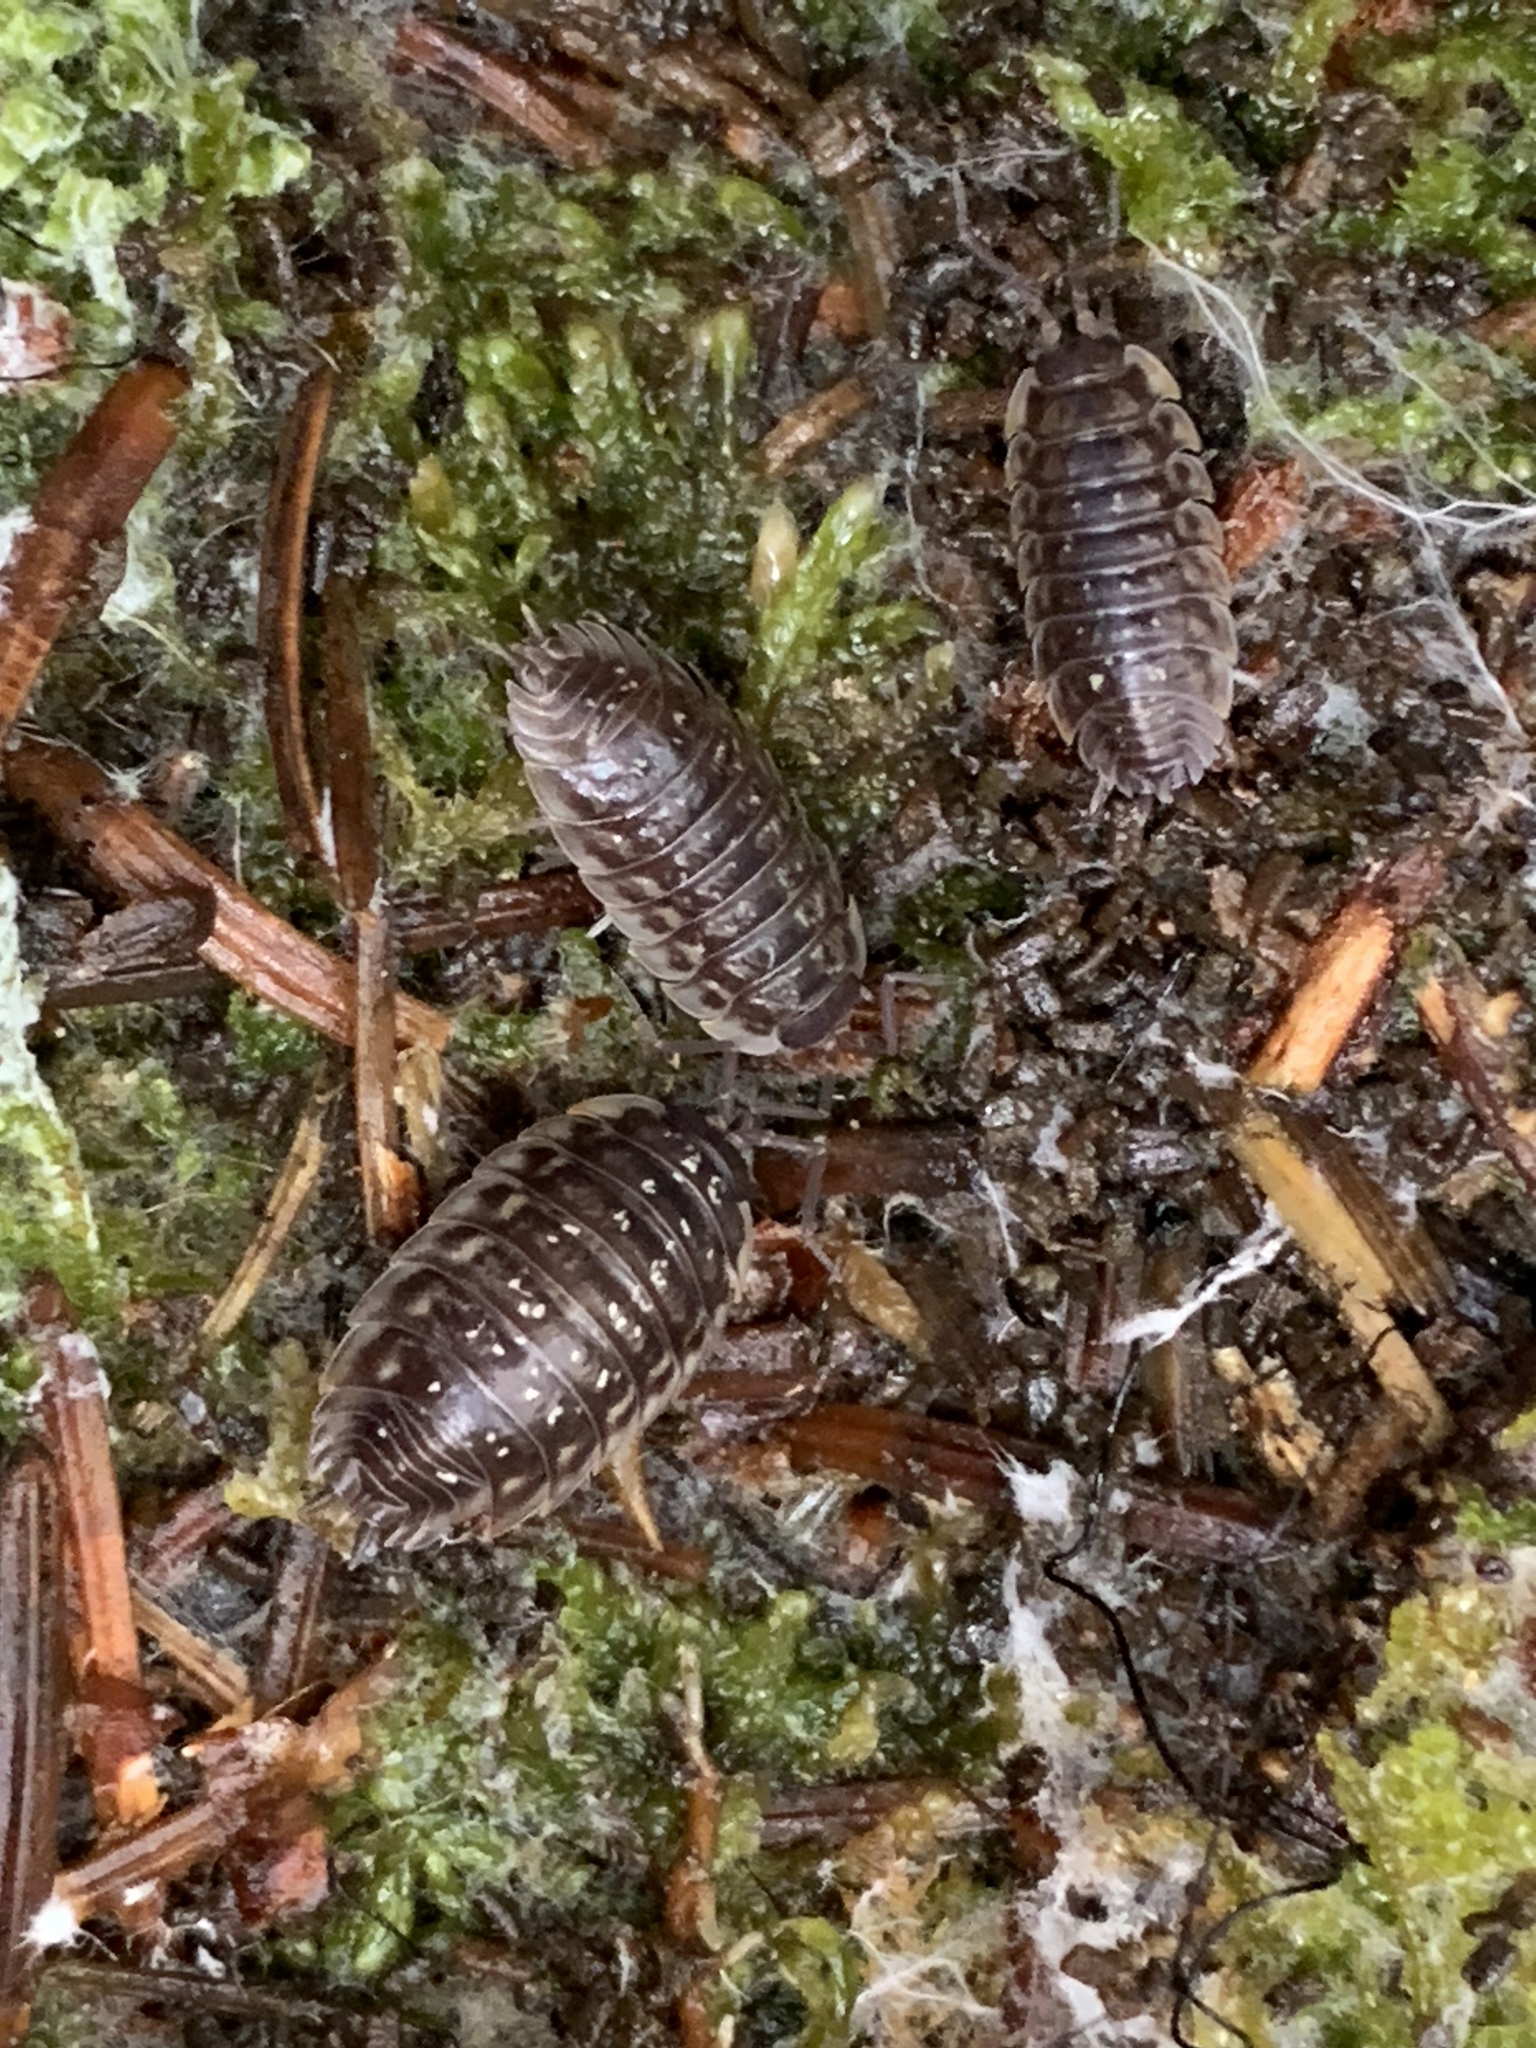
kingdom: Animalia
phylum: Arthropoda
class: Malacostraca
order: Isopoda
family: Oniscidae
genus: Oniscus
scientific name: Oniscus asellus
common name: Common shiny woodlouse
